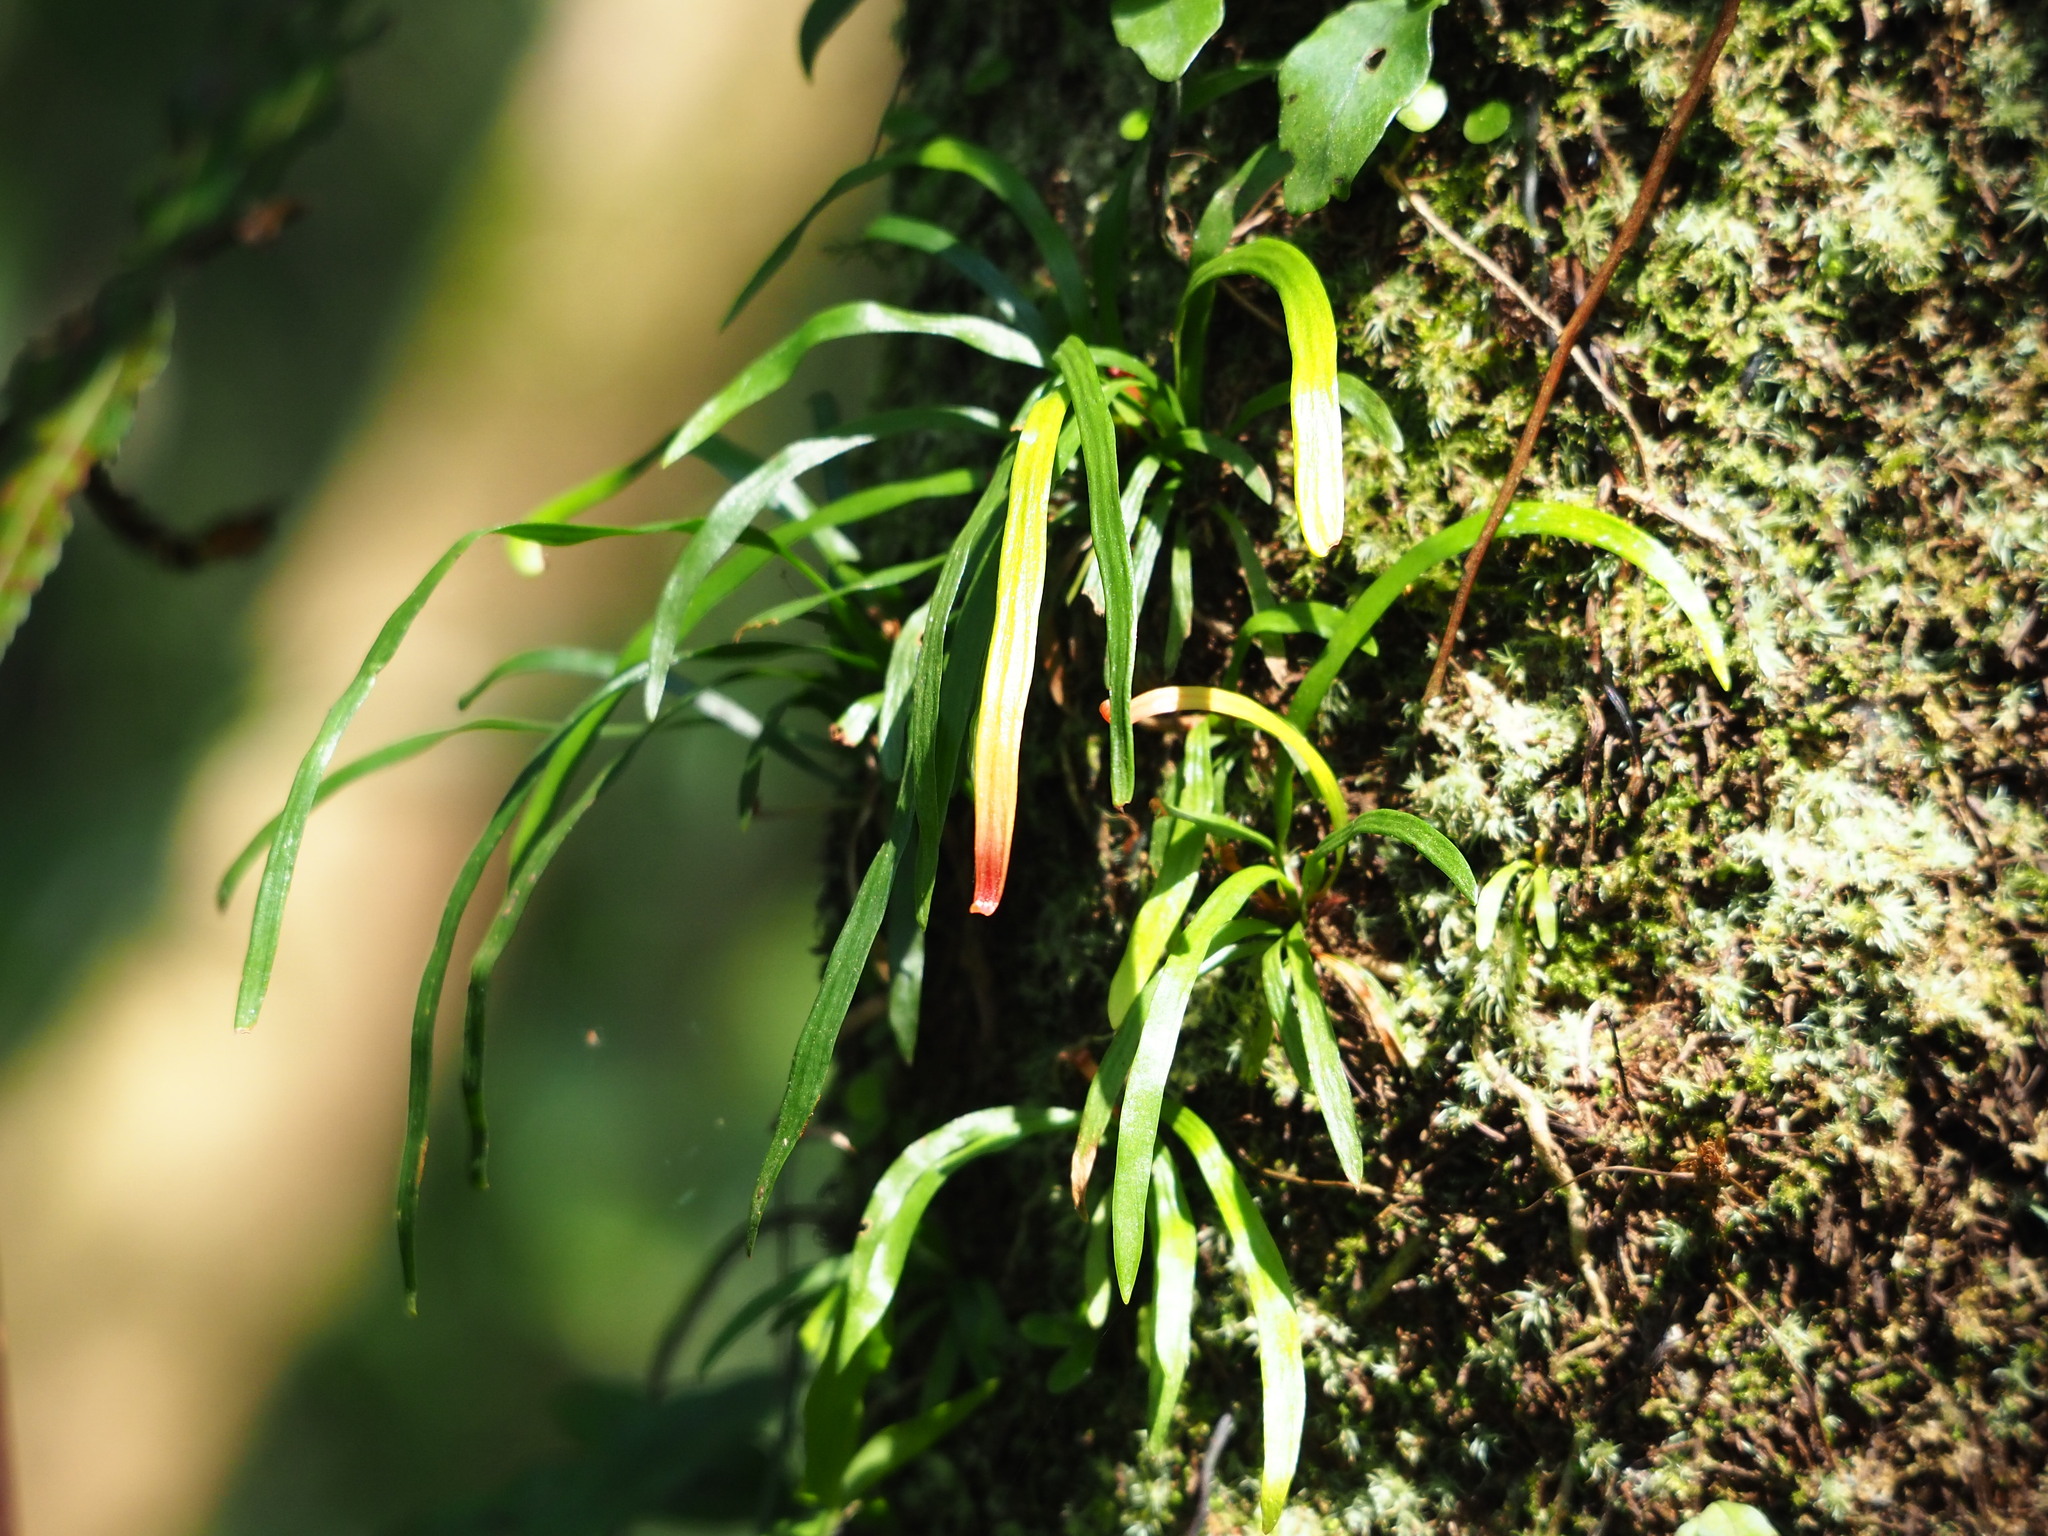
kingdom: Plantae
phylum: Tracheophyta
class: Polypodiopsida
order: Polypodiales
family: Pteridaceae
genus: Haplopteris
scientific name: Haplopteris anguste-elongata
